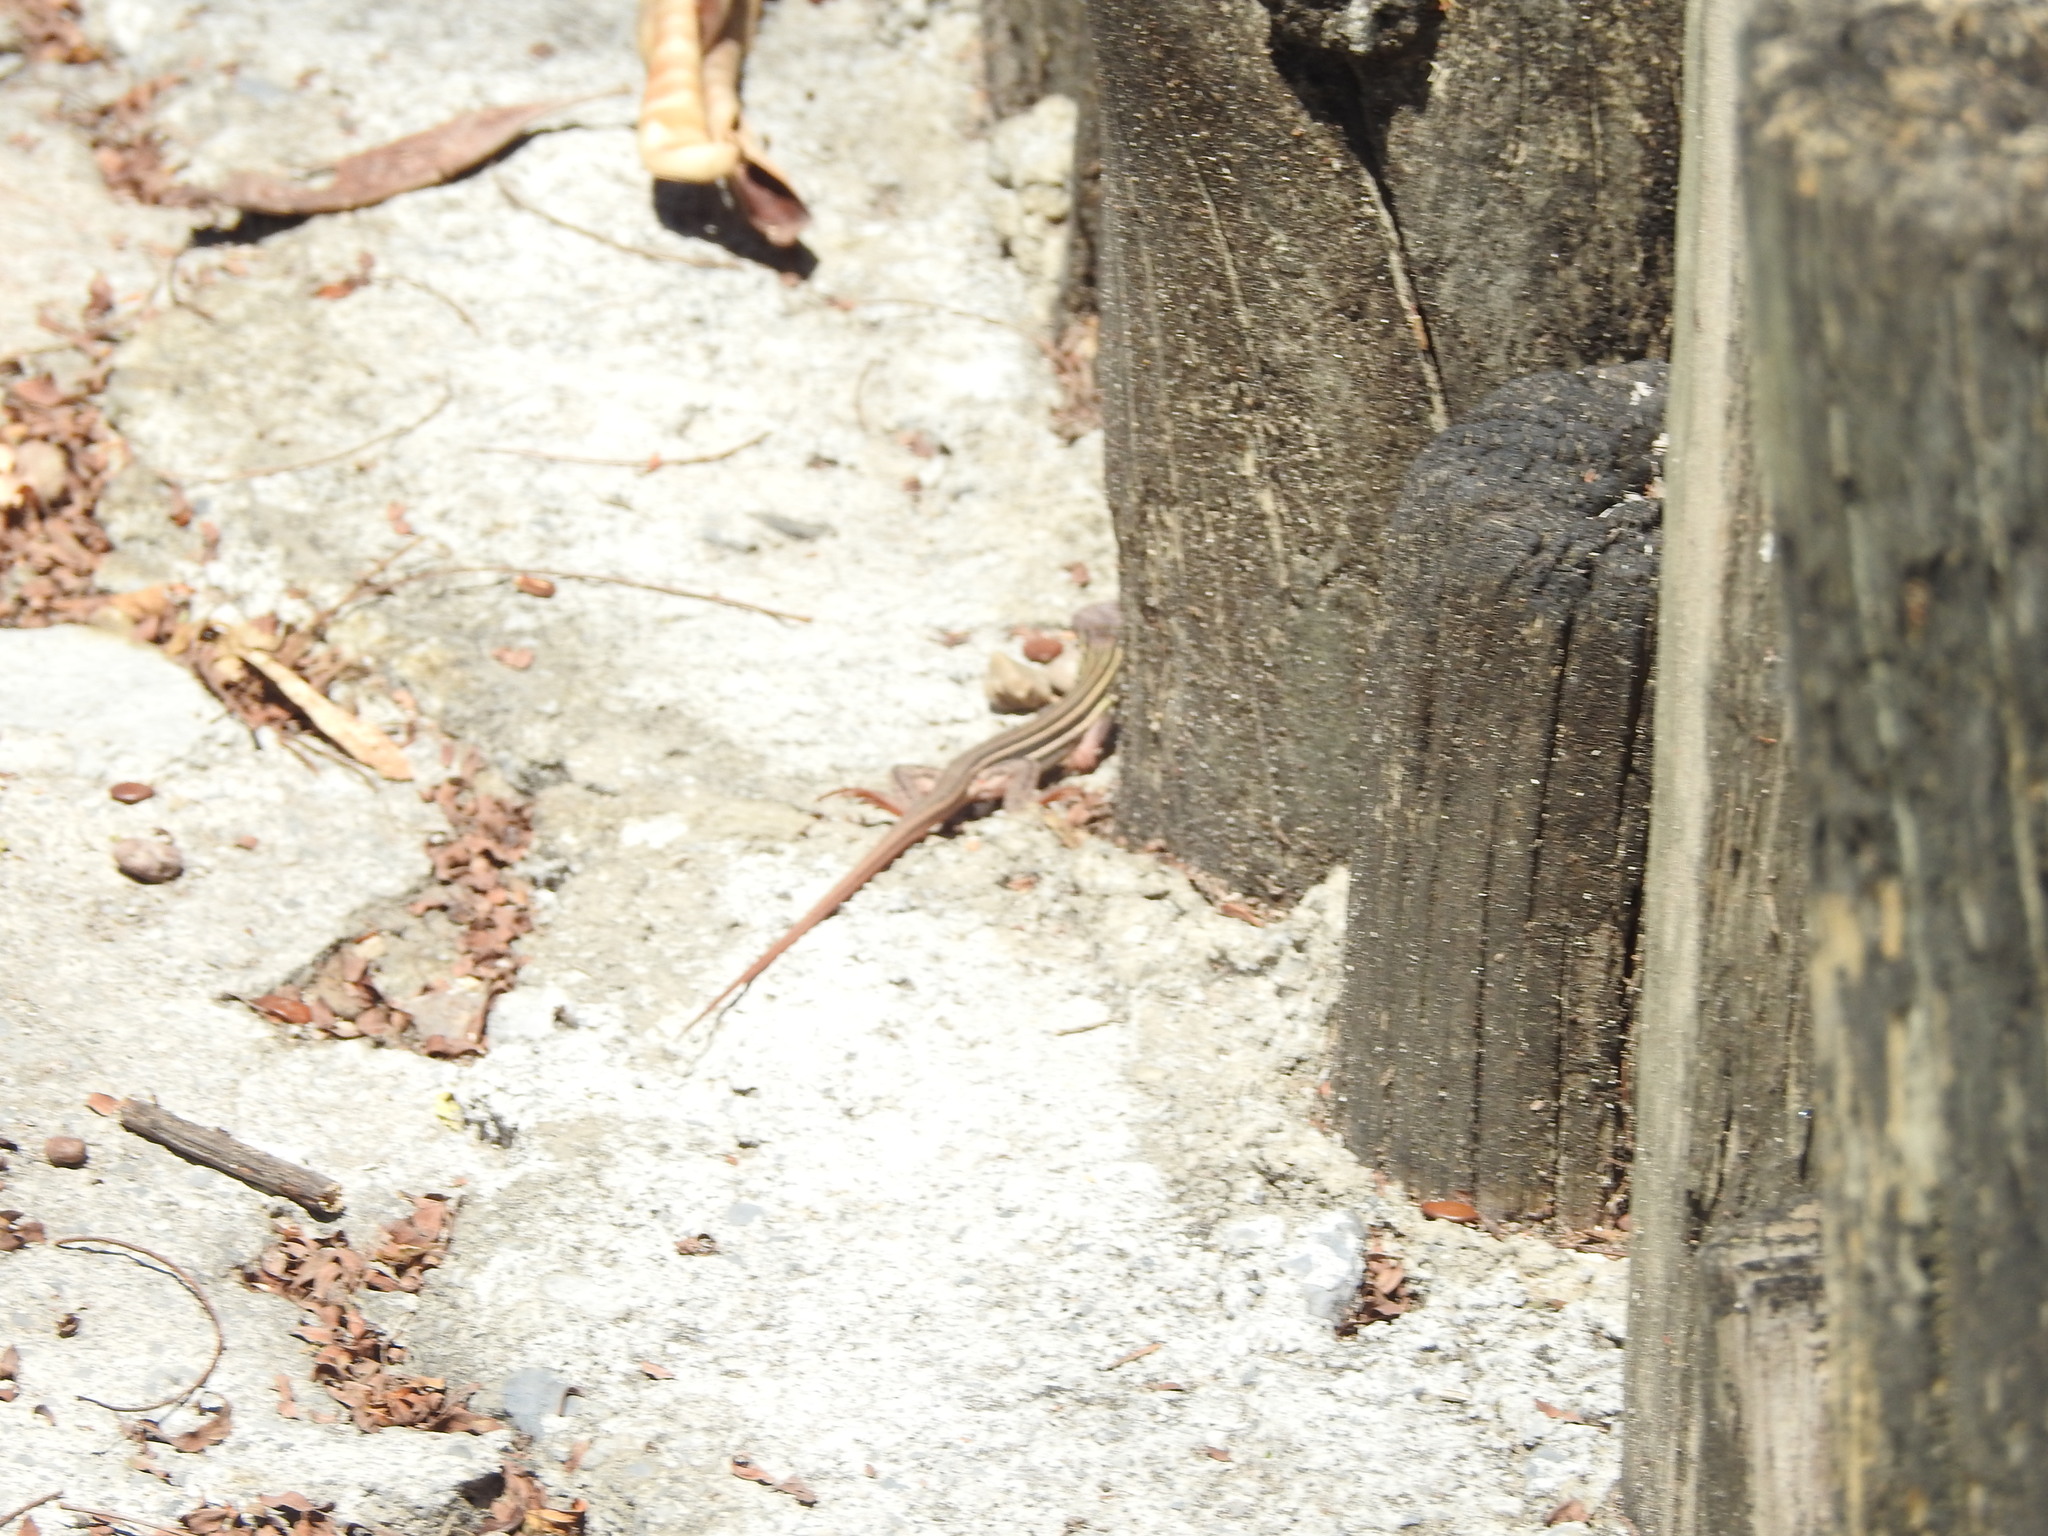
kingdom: Animalia
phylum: Chordata
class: Squamata
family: Teiidae
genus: Aspidoscelis
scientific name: Aspidoscelis gularis
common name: Eastern spotted whiptail
